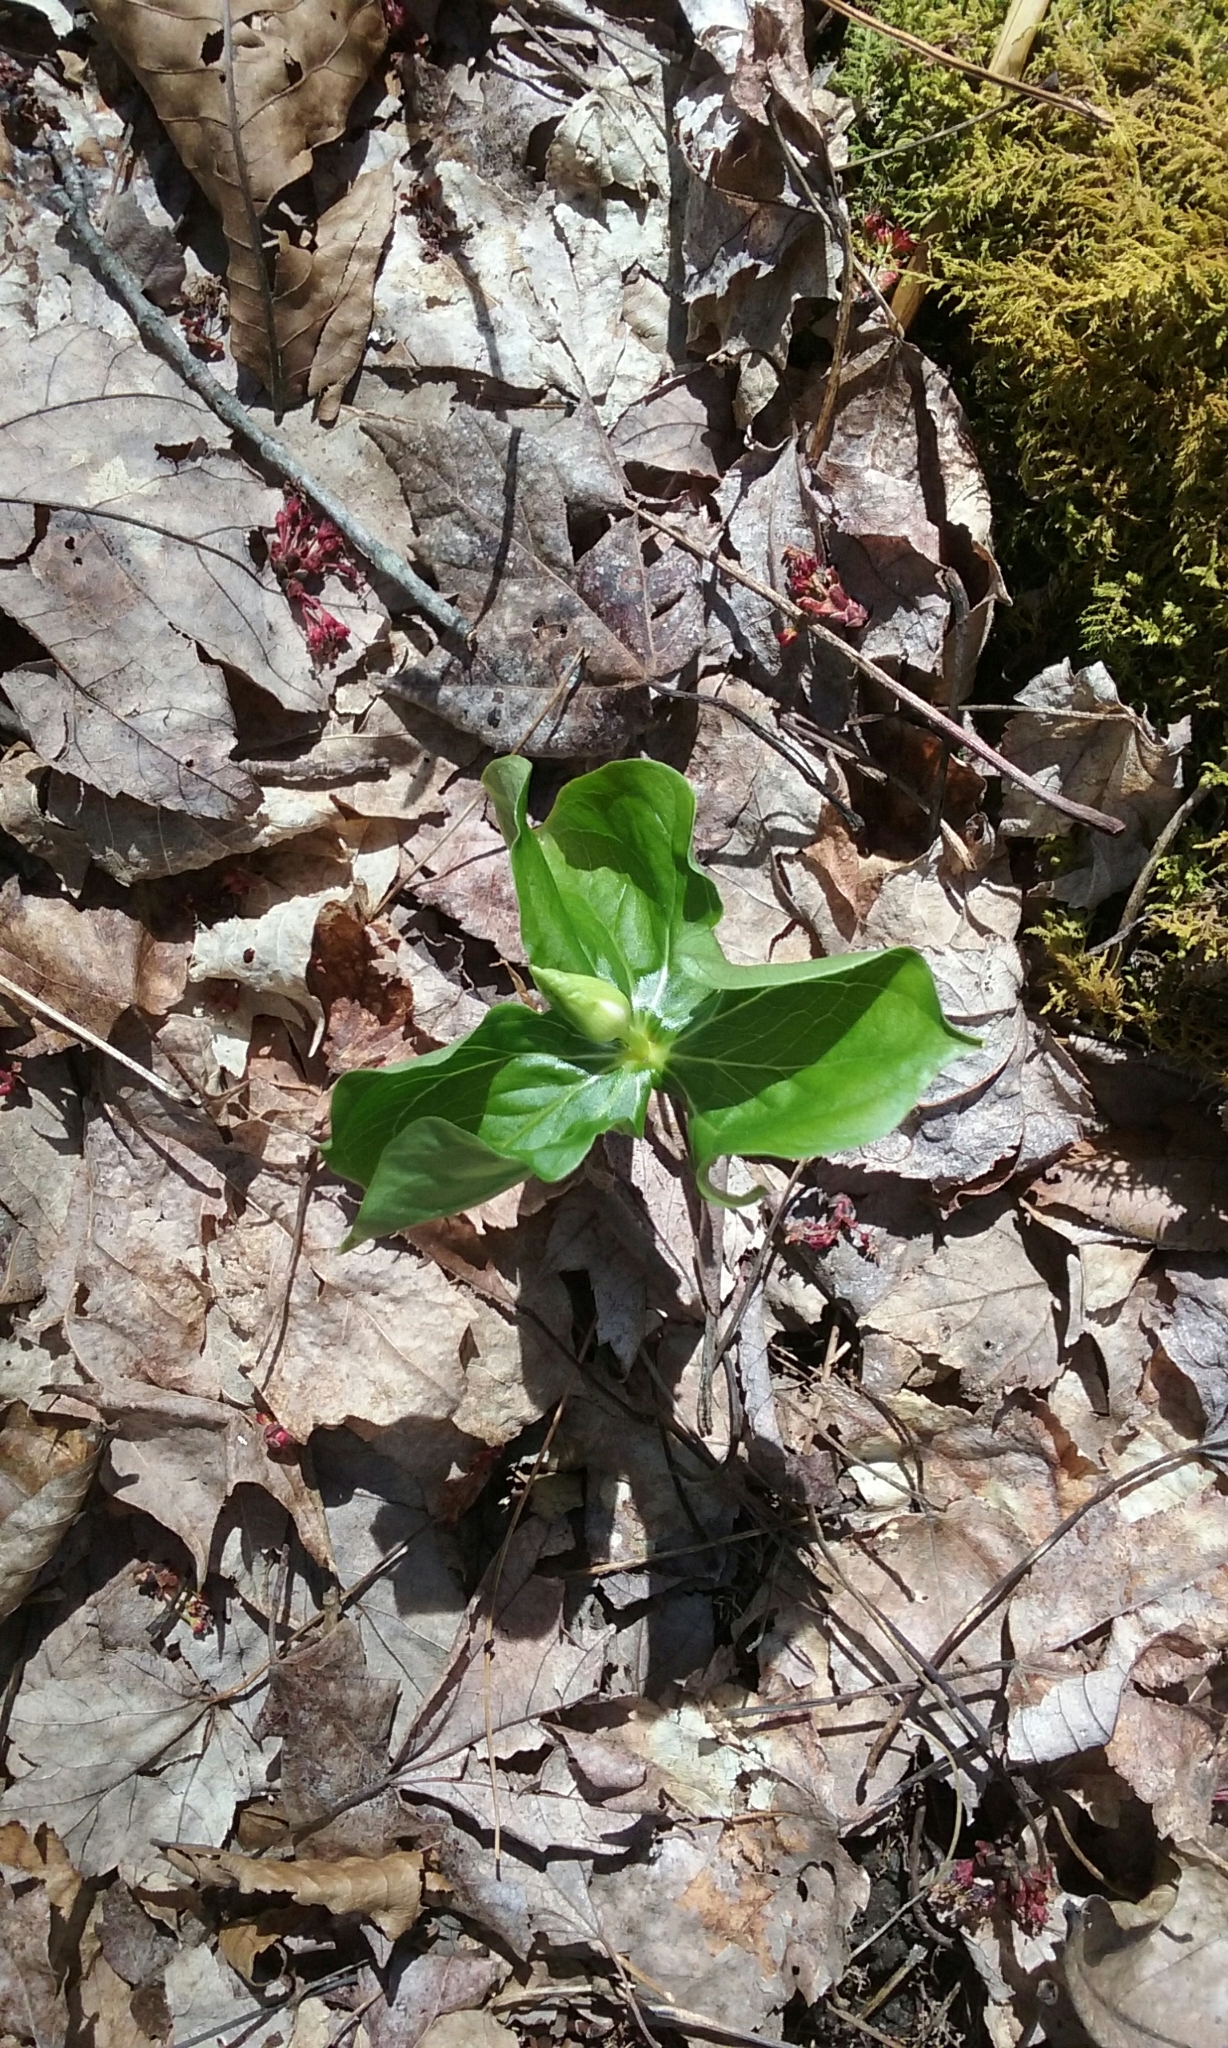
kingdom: Plantae
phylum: Tracheophyta
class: Liliopsida
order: Liliales
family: Melanthiaceae
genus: Trillium
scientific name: Trillium
